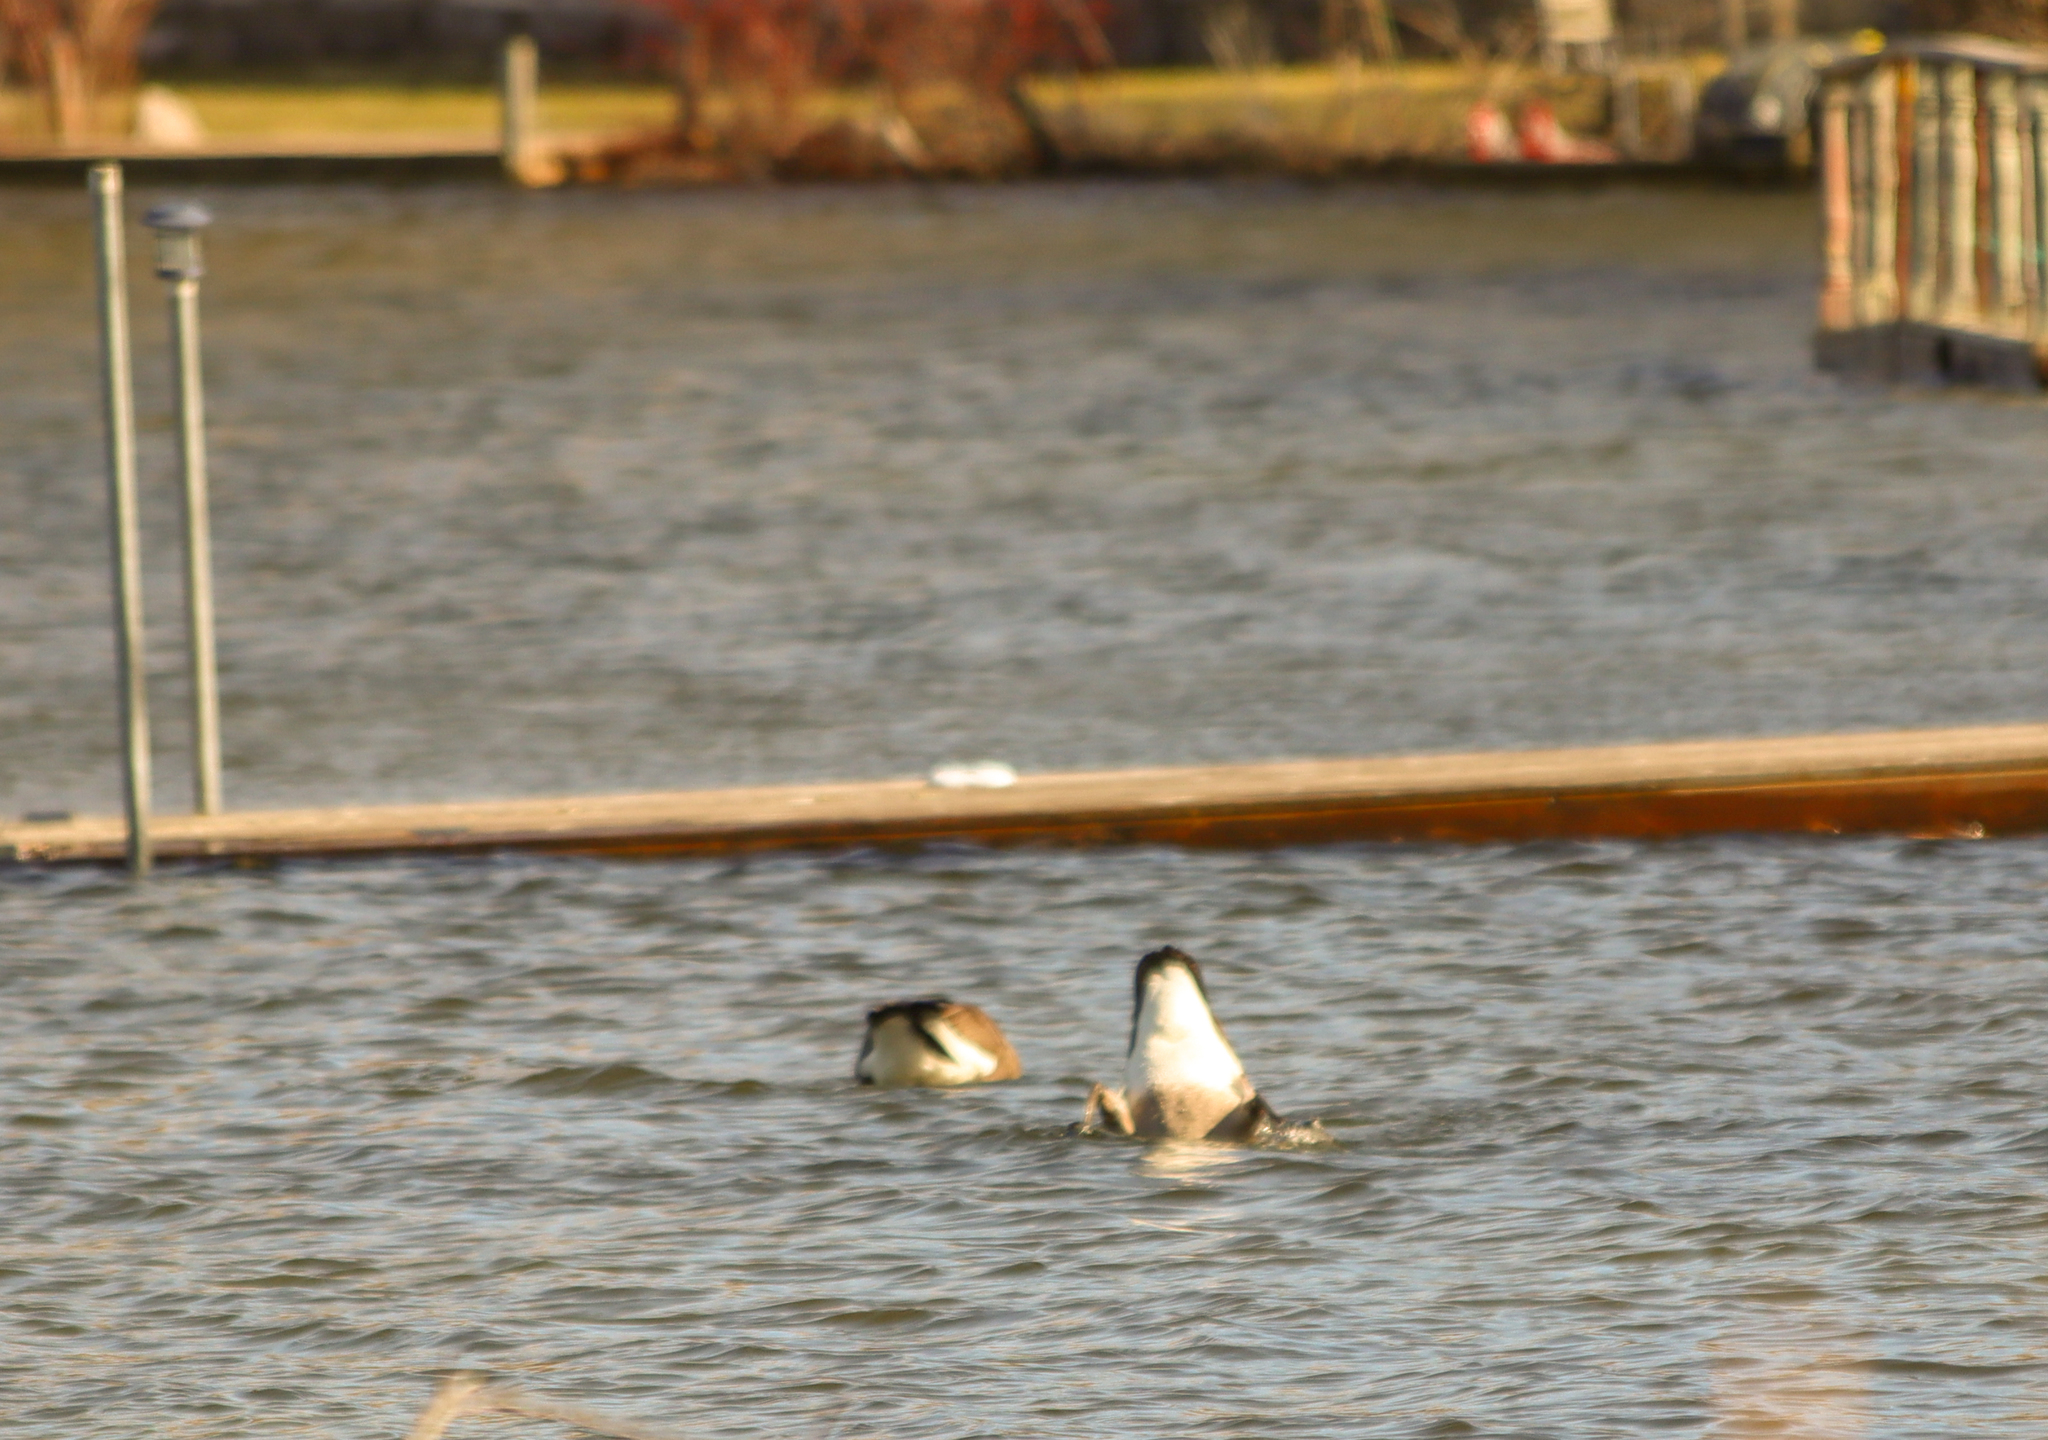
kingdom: Animalia
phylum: Chordata
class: Aves
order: Anseriformes
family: Anatidae
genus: Branta
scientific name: Branta canadensis
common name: Canada goose
